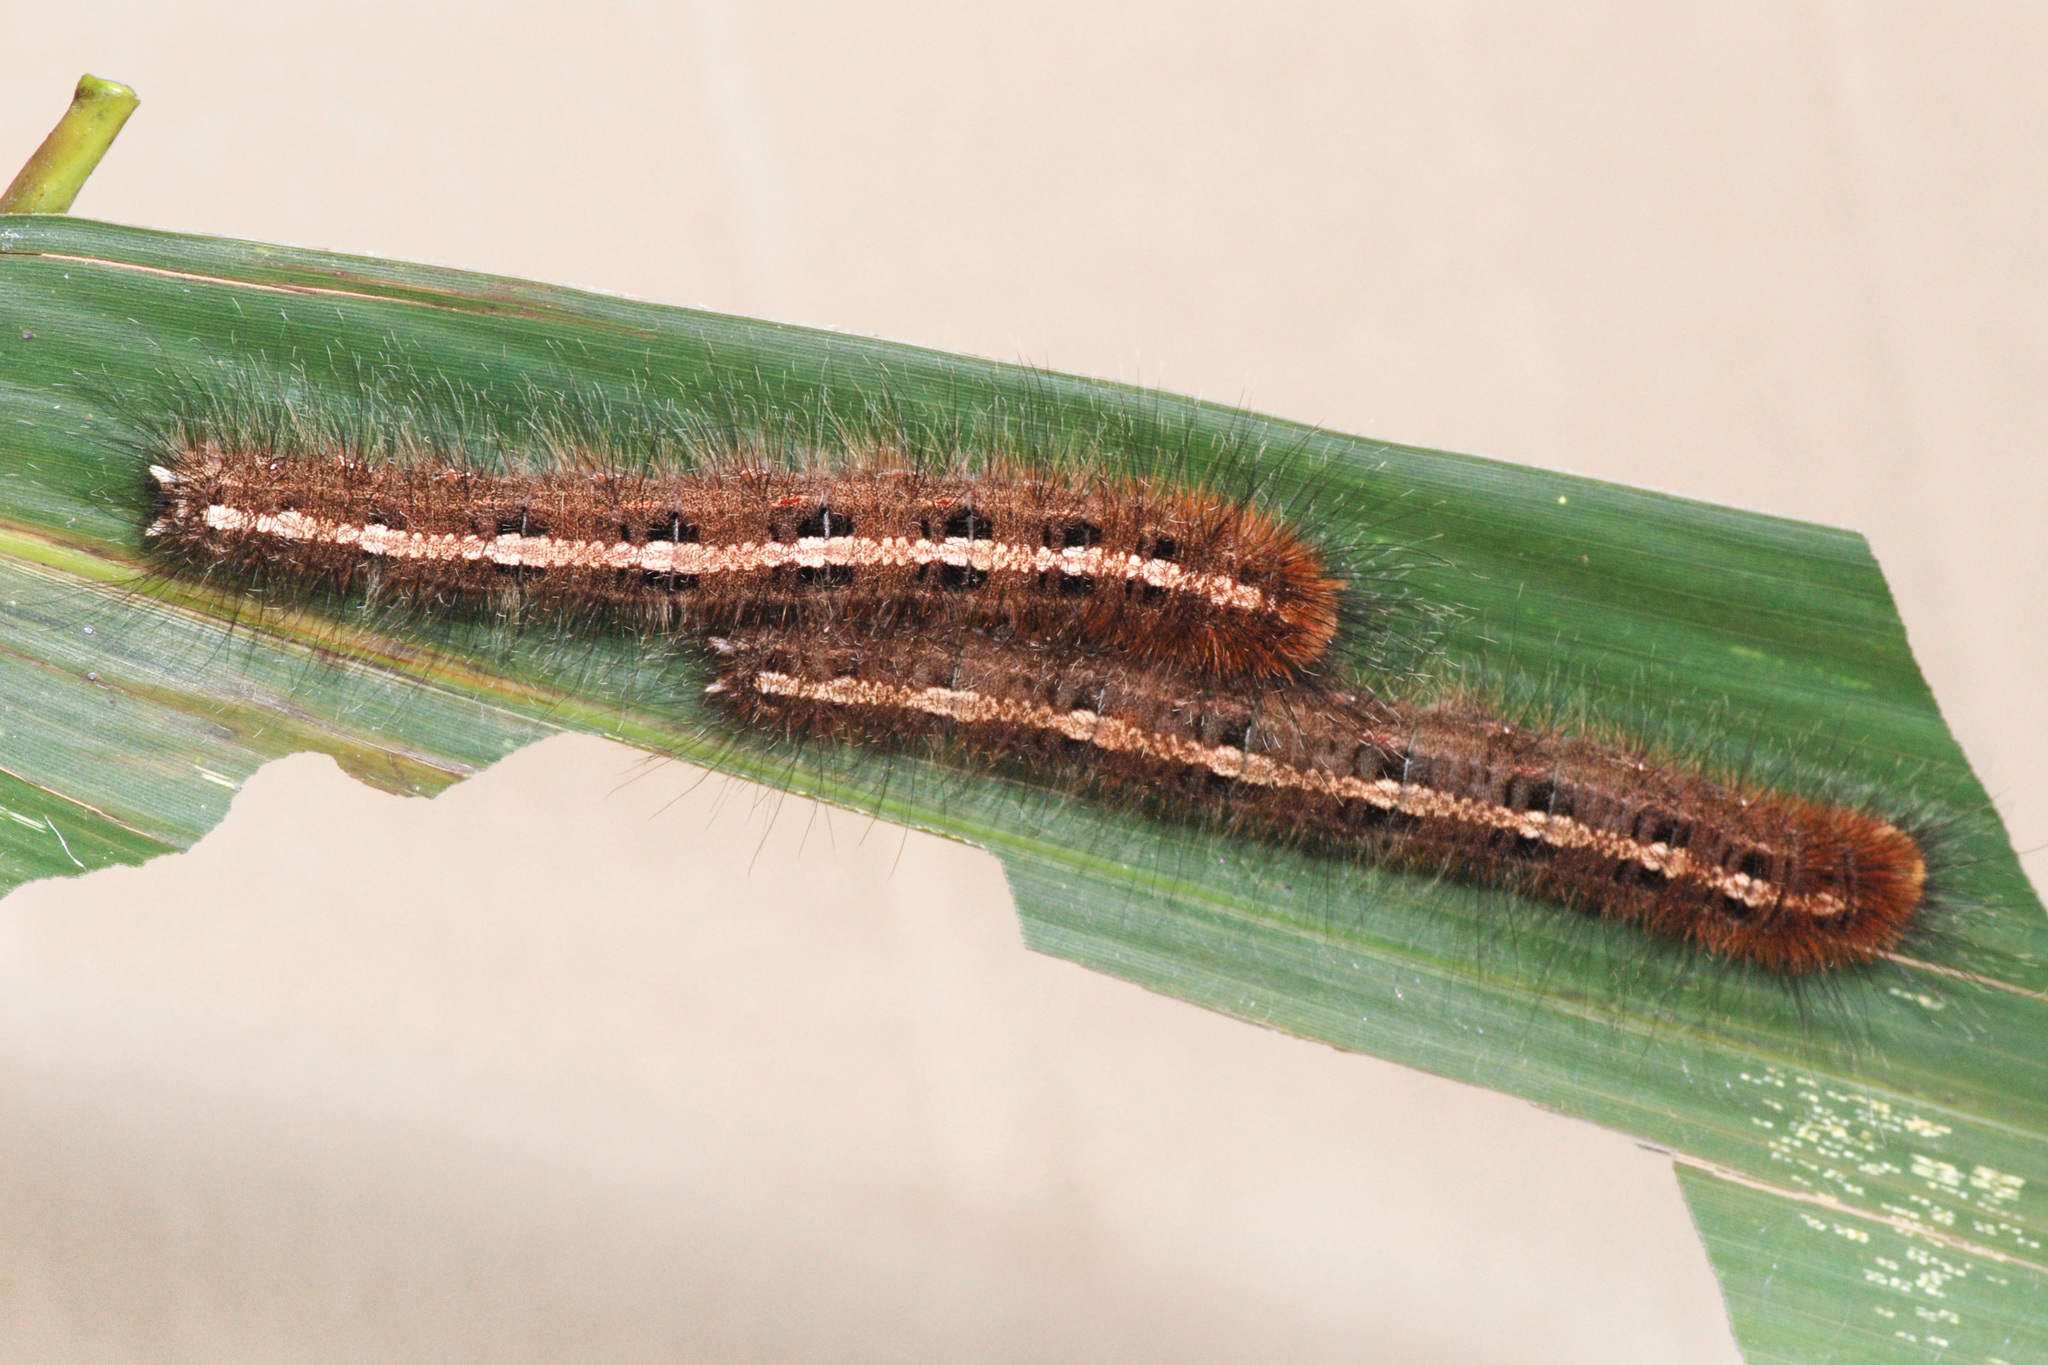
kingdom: Animalia
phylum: Arthropoda
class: Insecta
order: Lepidoptera
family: Nymphalidae
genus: Discophora
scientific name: Discophora timora
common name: Great duffer
